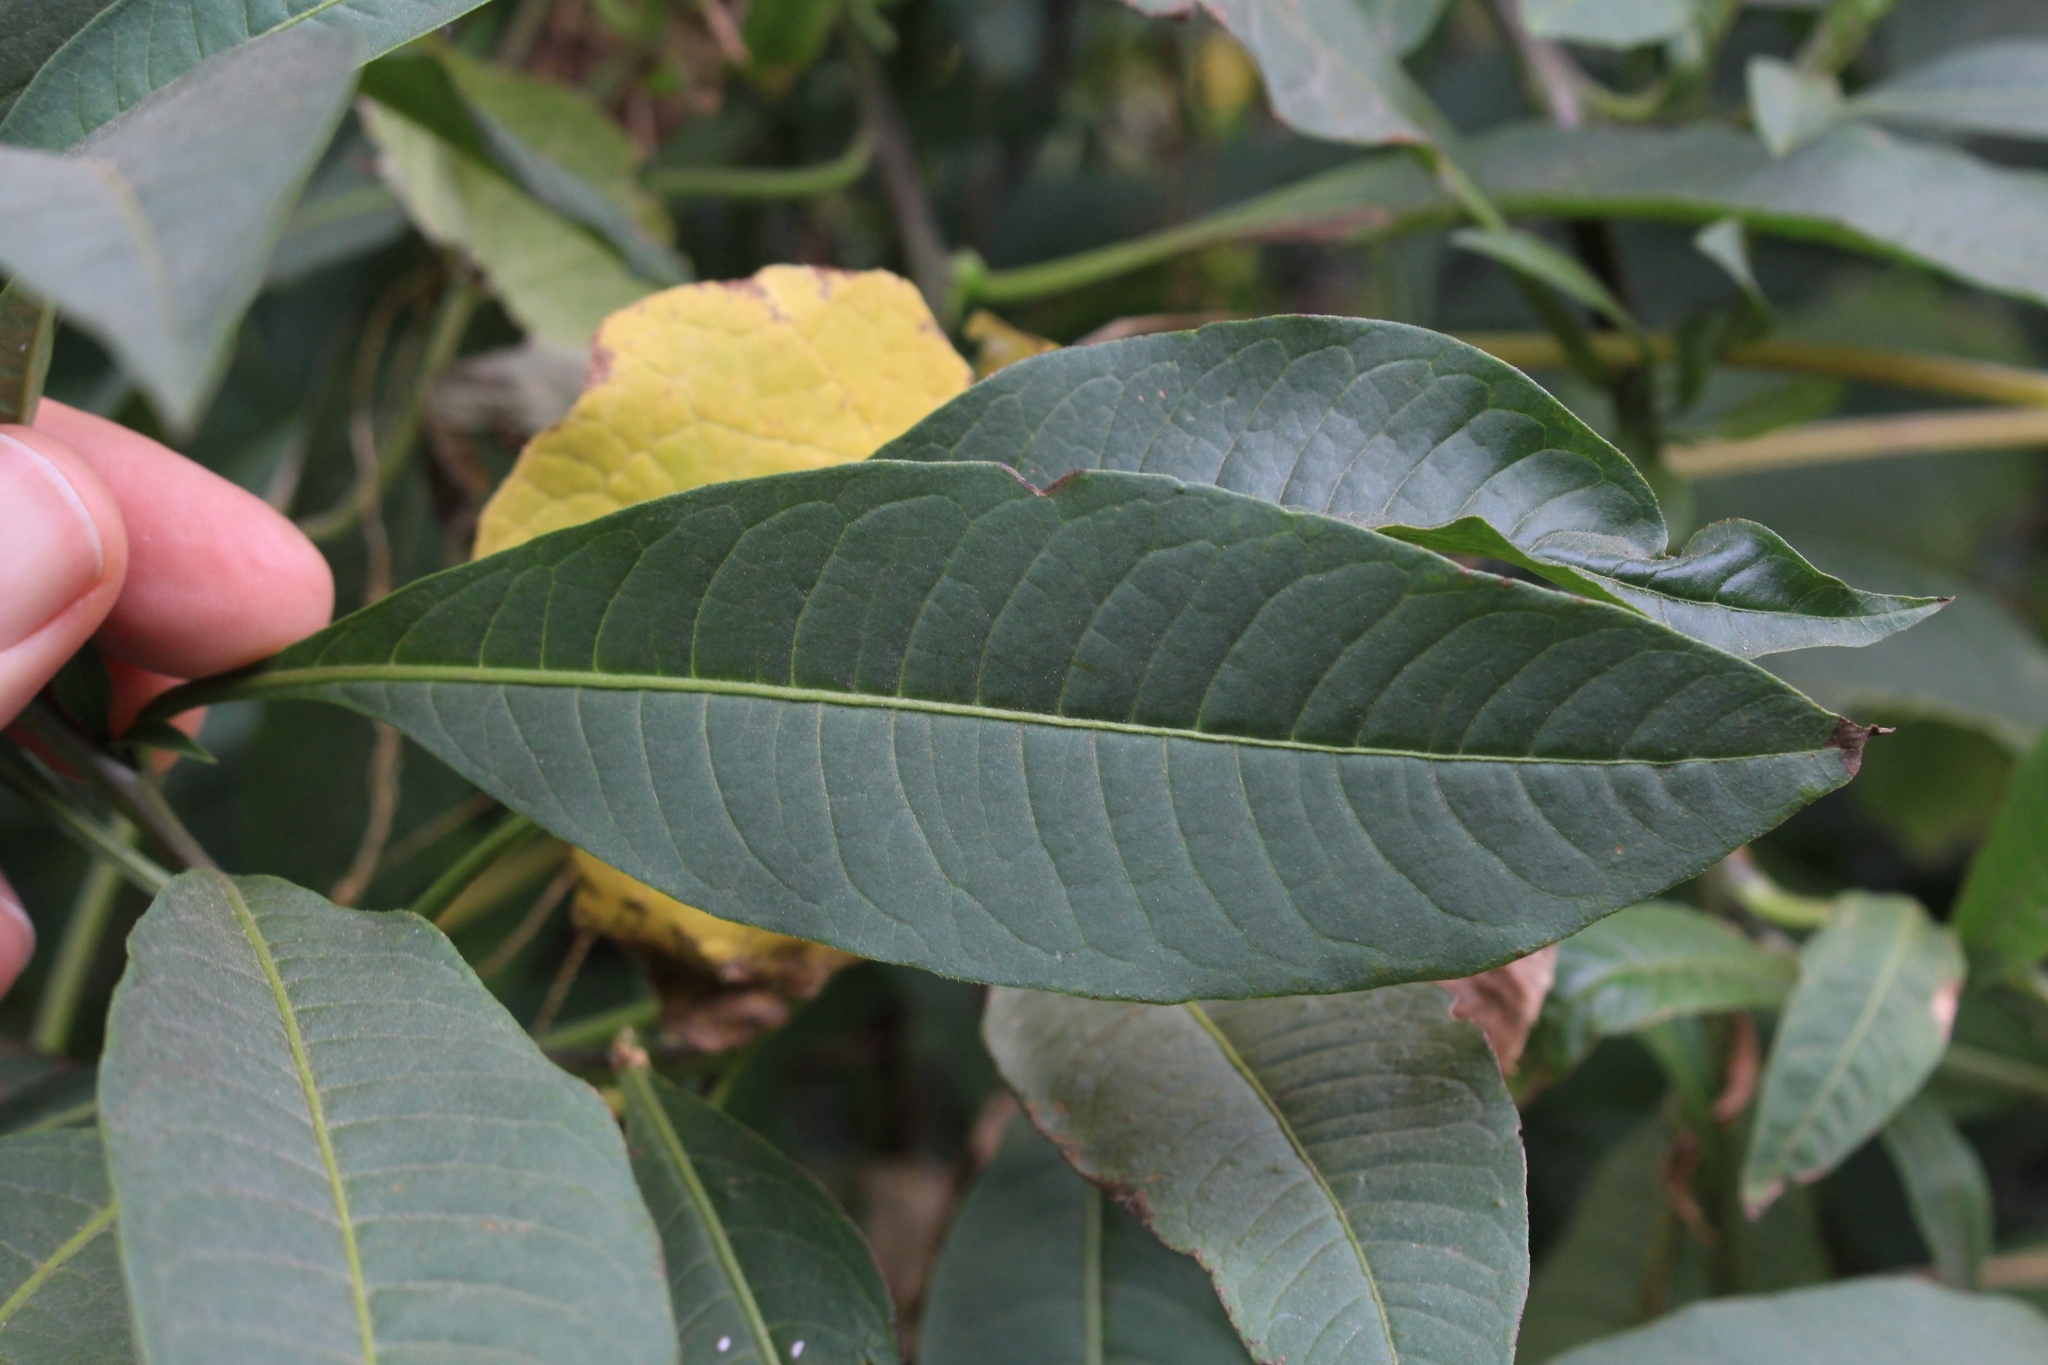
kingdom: Plantae
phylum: Tracheophyta
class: Magnoliopsida
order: Solanales
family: Solanaceae
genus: Solanum
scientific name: Solanum pubigerum
